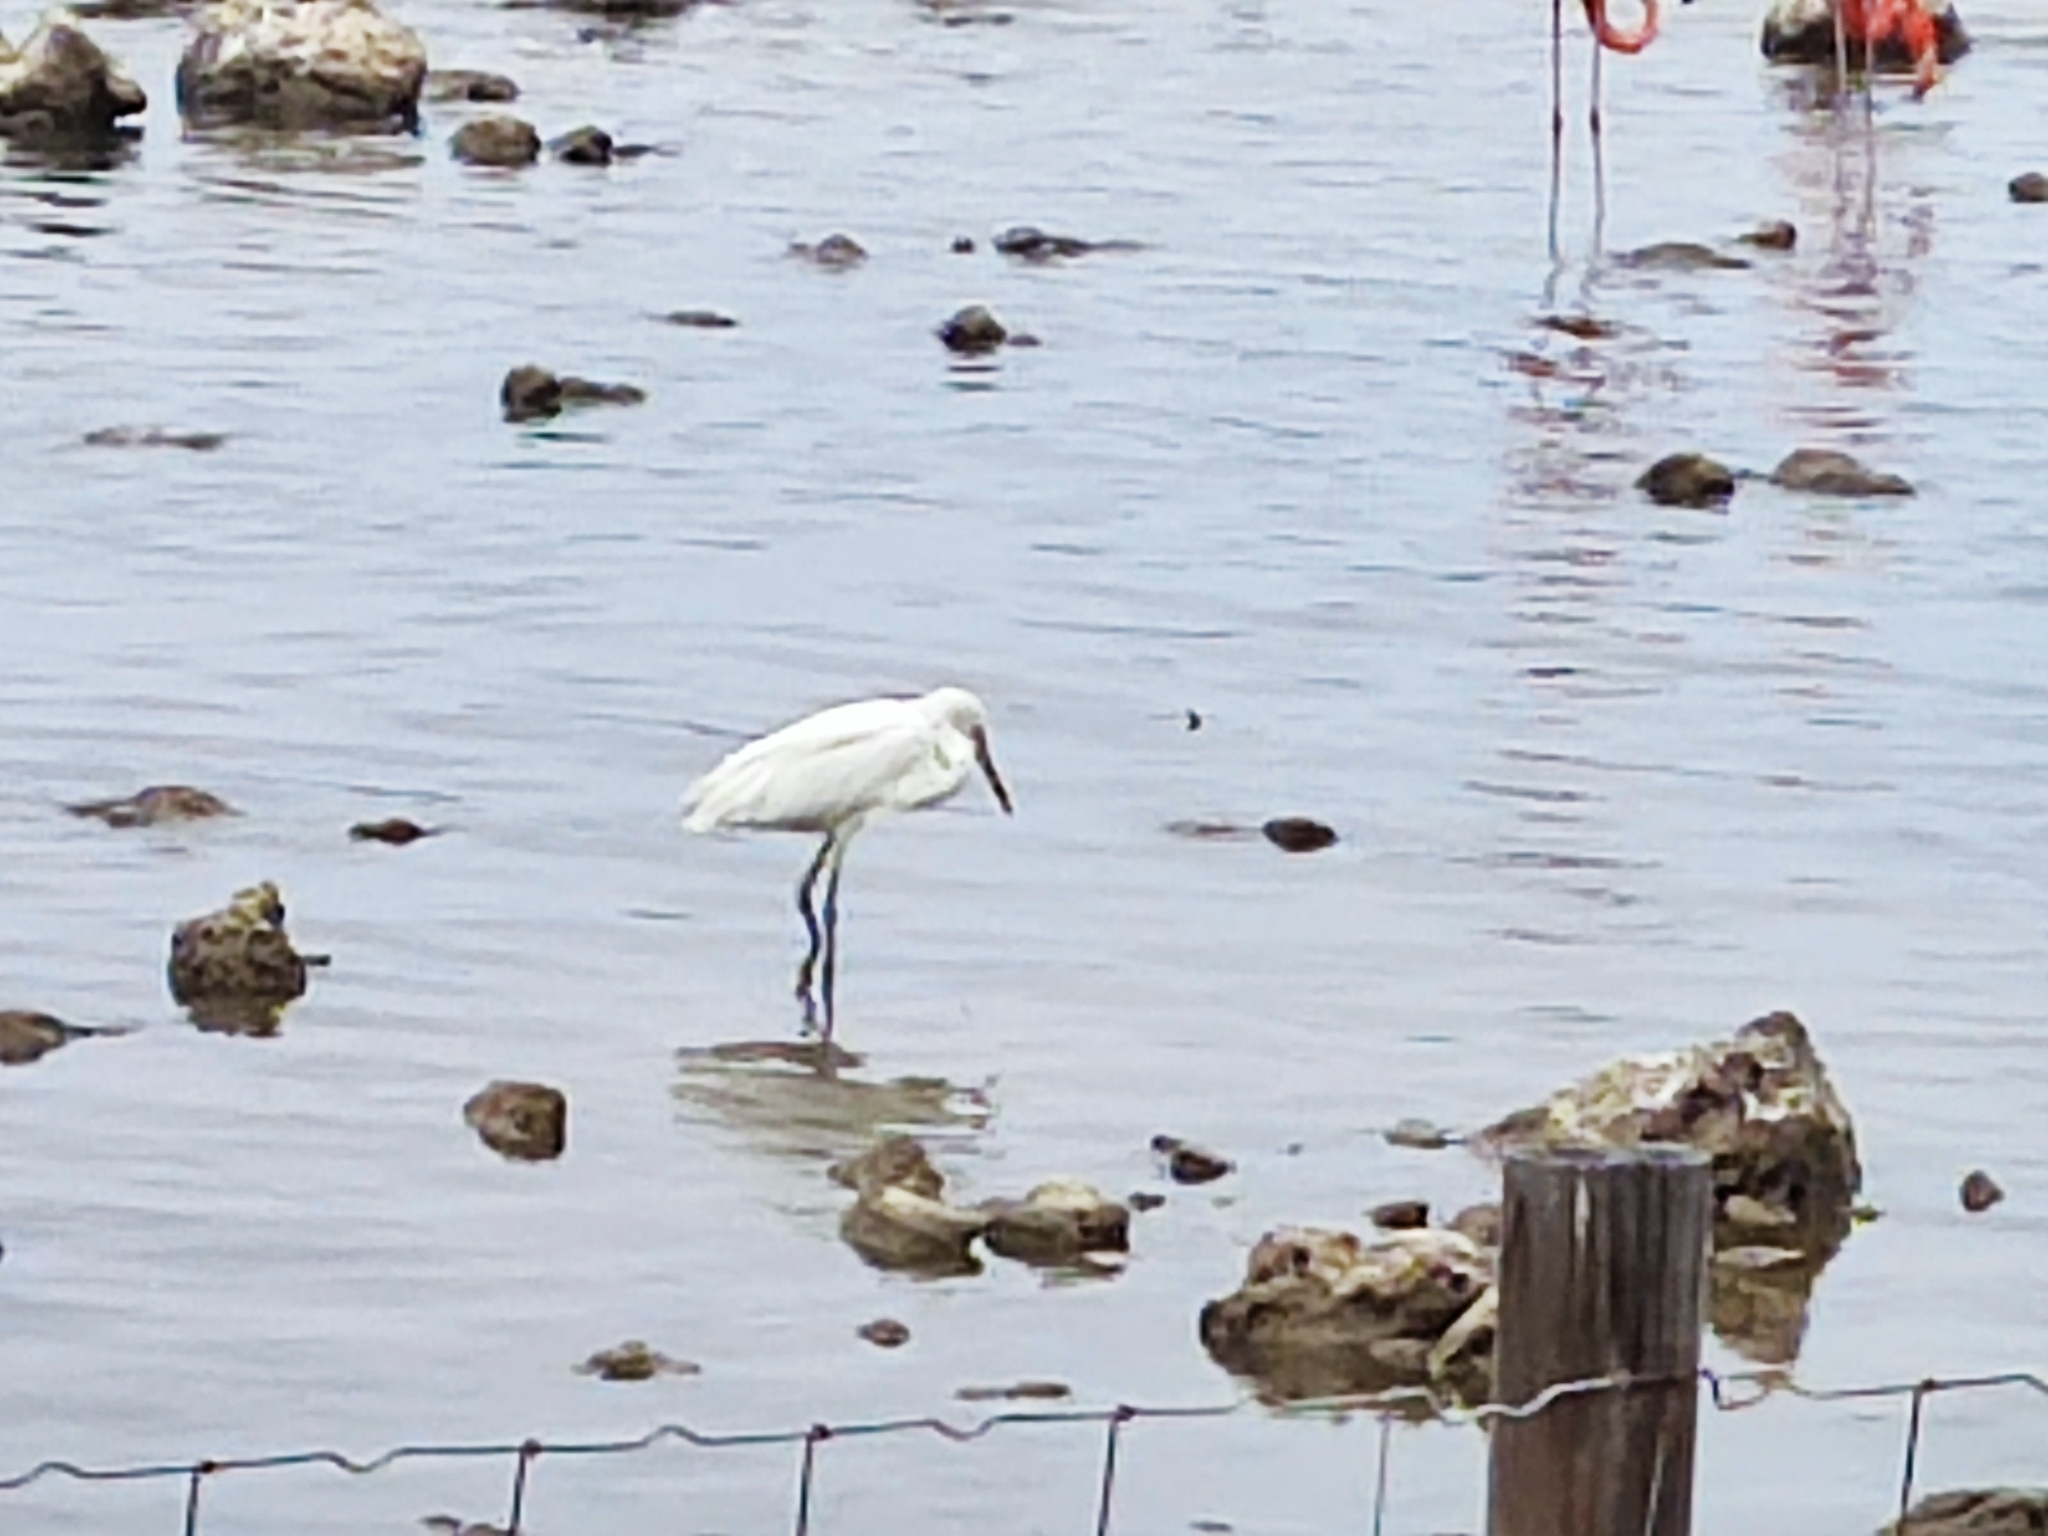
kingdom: Animalia
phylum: Chordata
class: Aves
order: Pelecaniformes
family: Ardeidae
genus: Egretta
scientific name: Egretta thula
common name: Snowy egret
